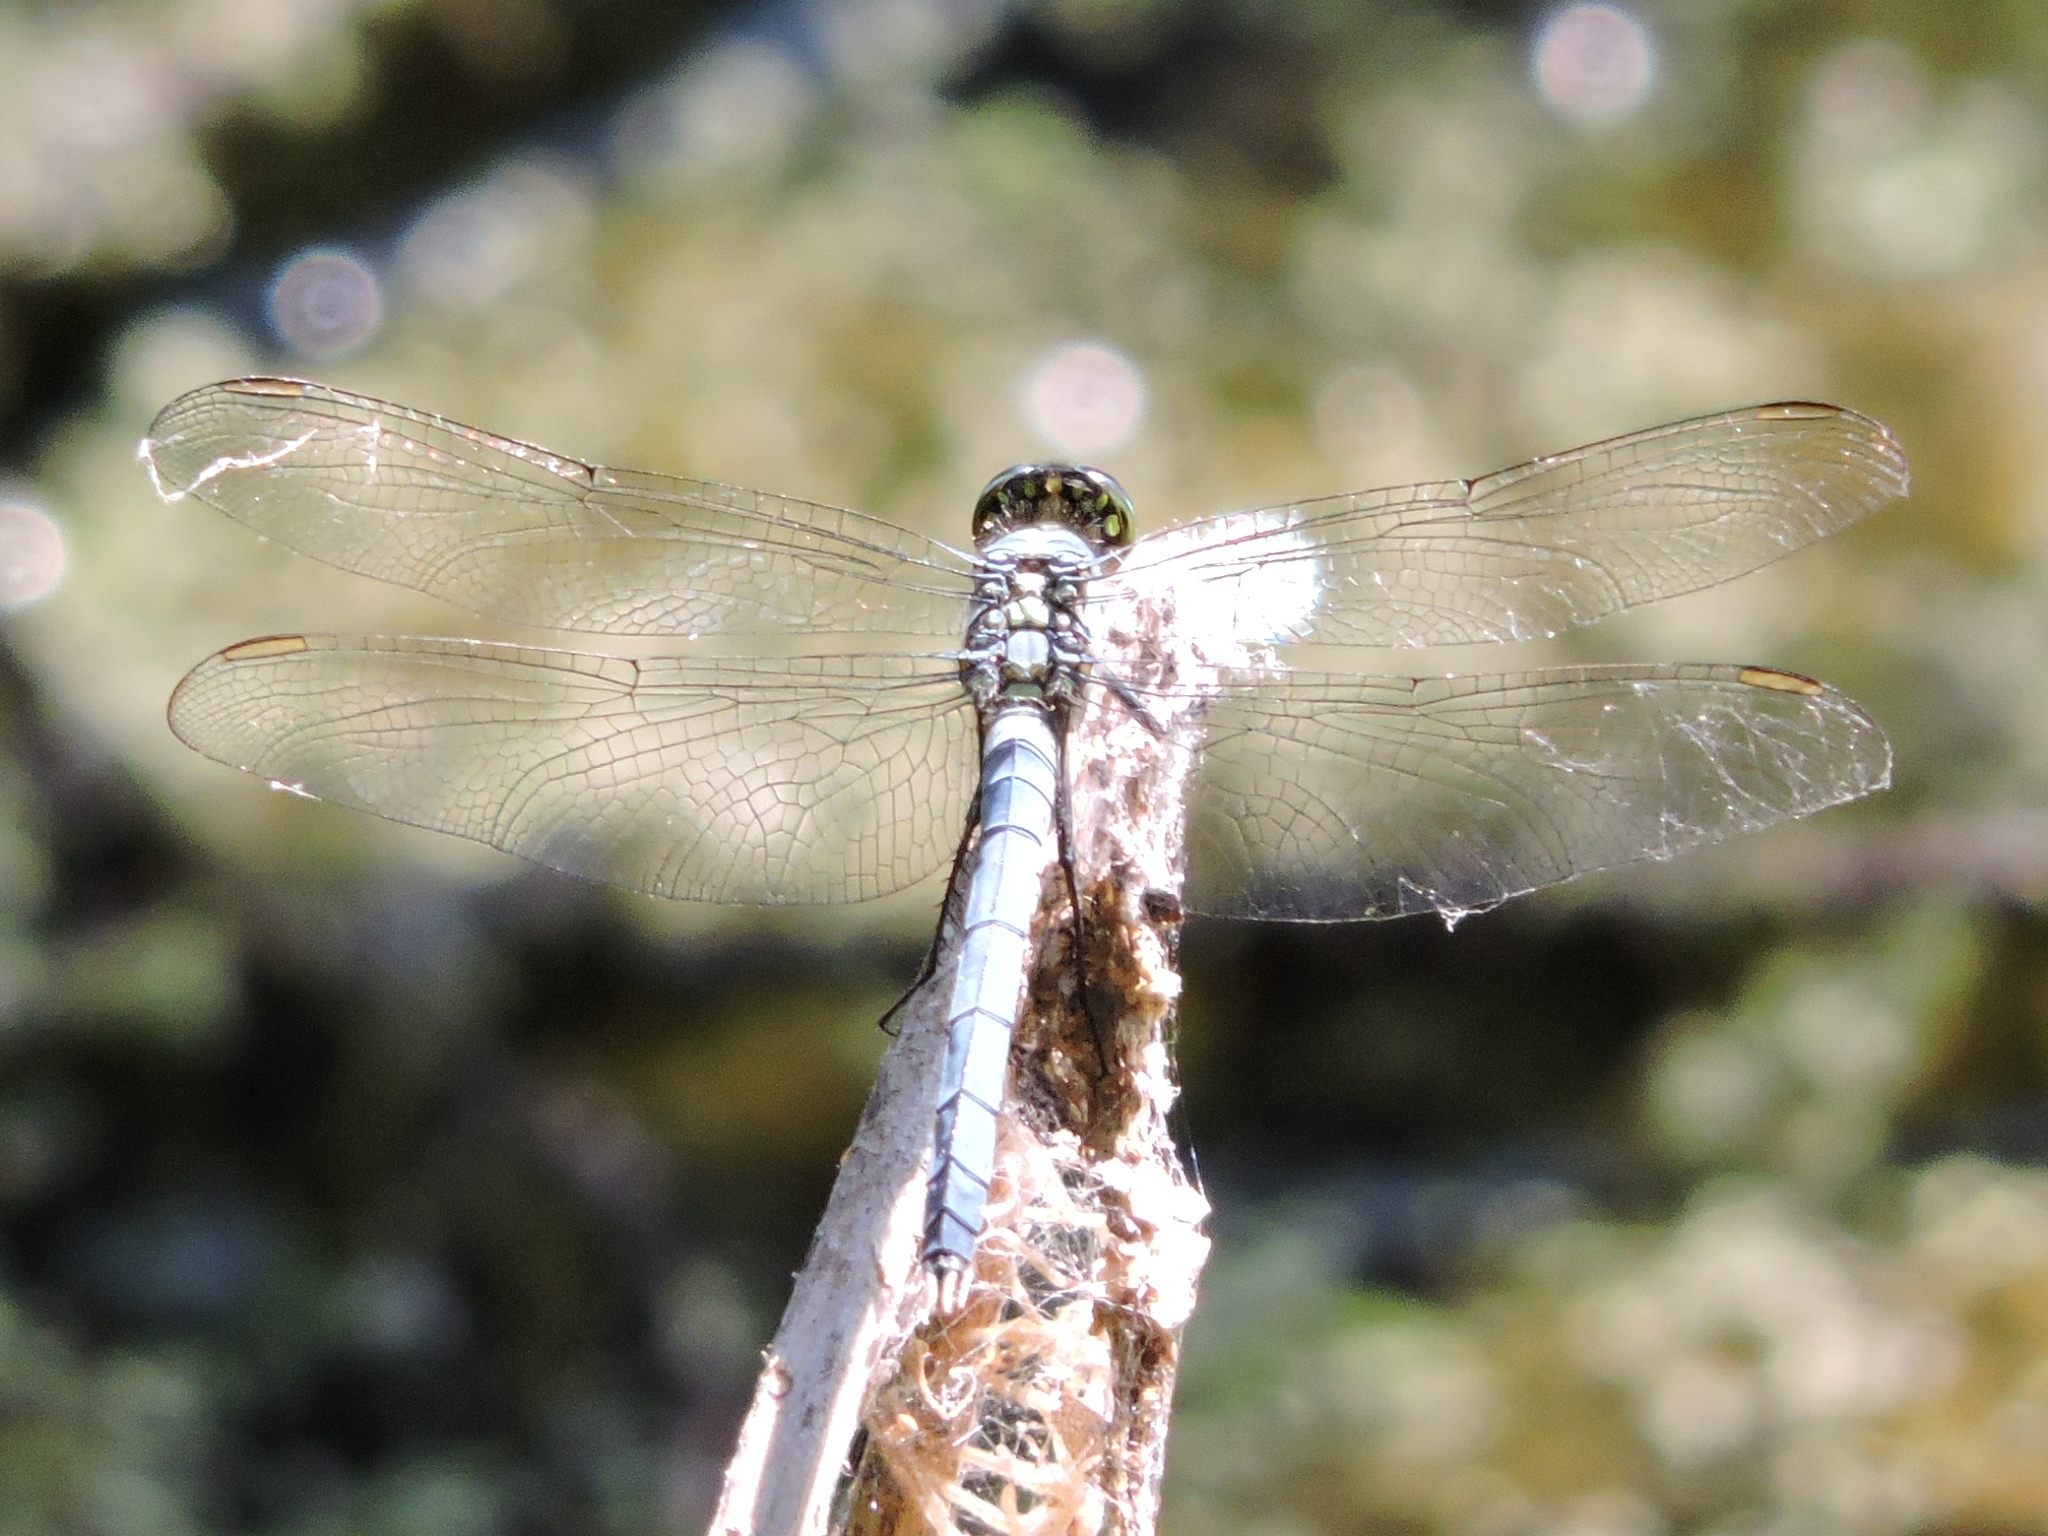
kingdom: Animalia
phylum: Arthropoda
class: Insecta
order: Odonata
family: Libellulidae
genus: Erythemis
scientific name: Erythemis simplicicollis
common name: Eastern pondhawk
